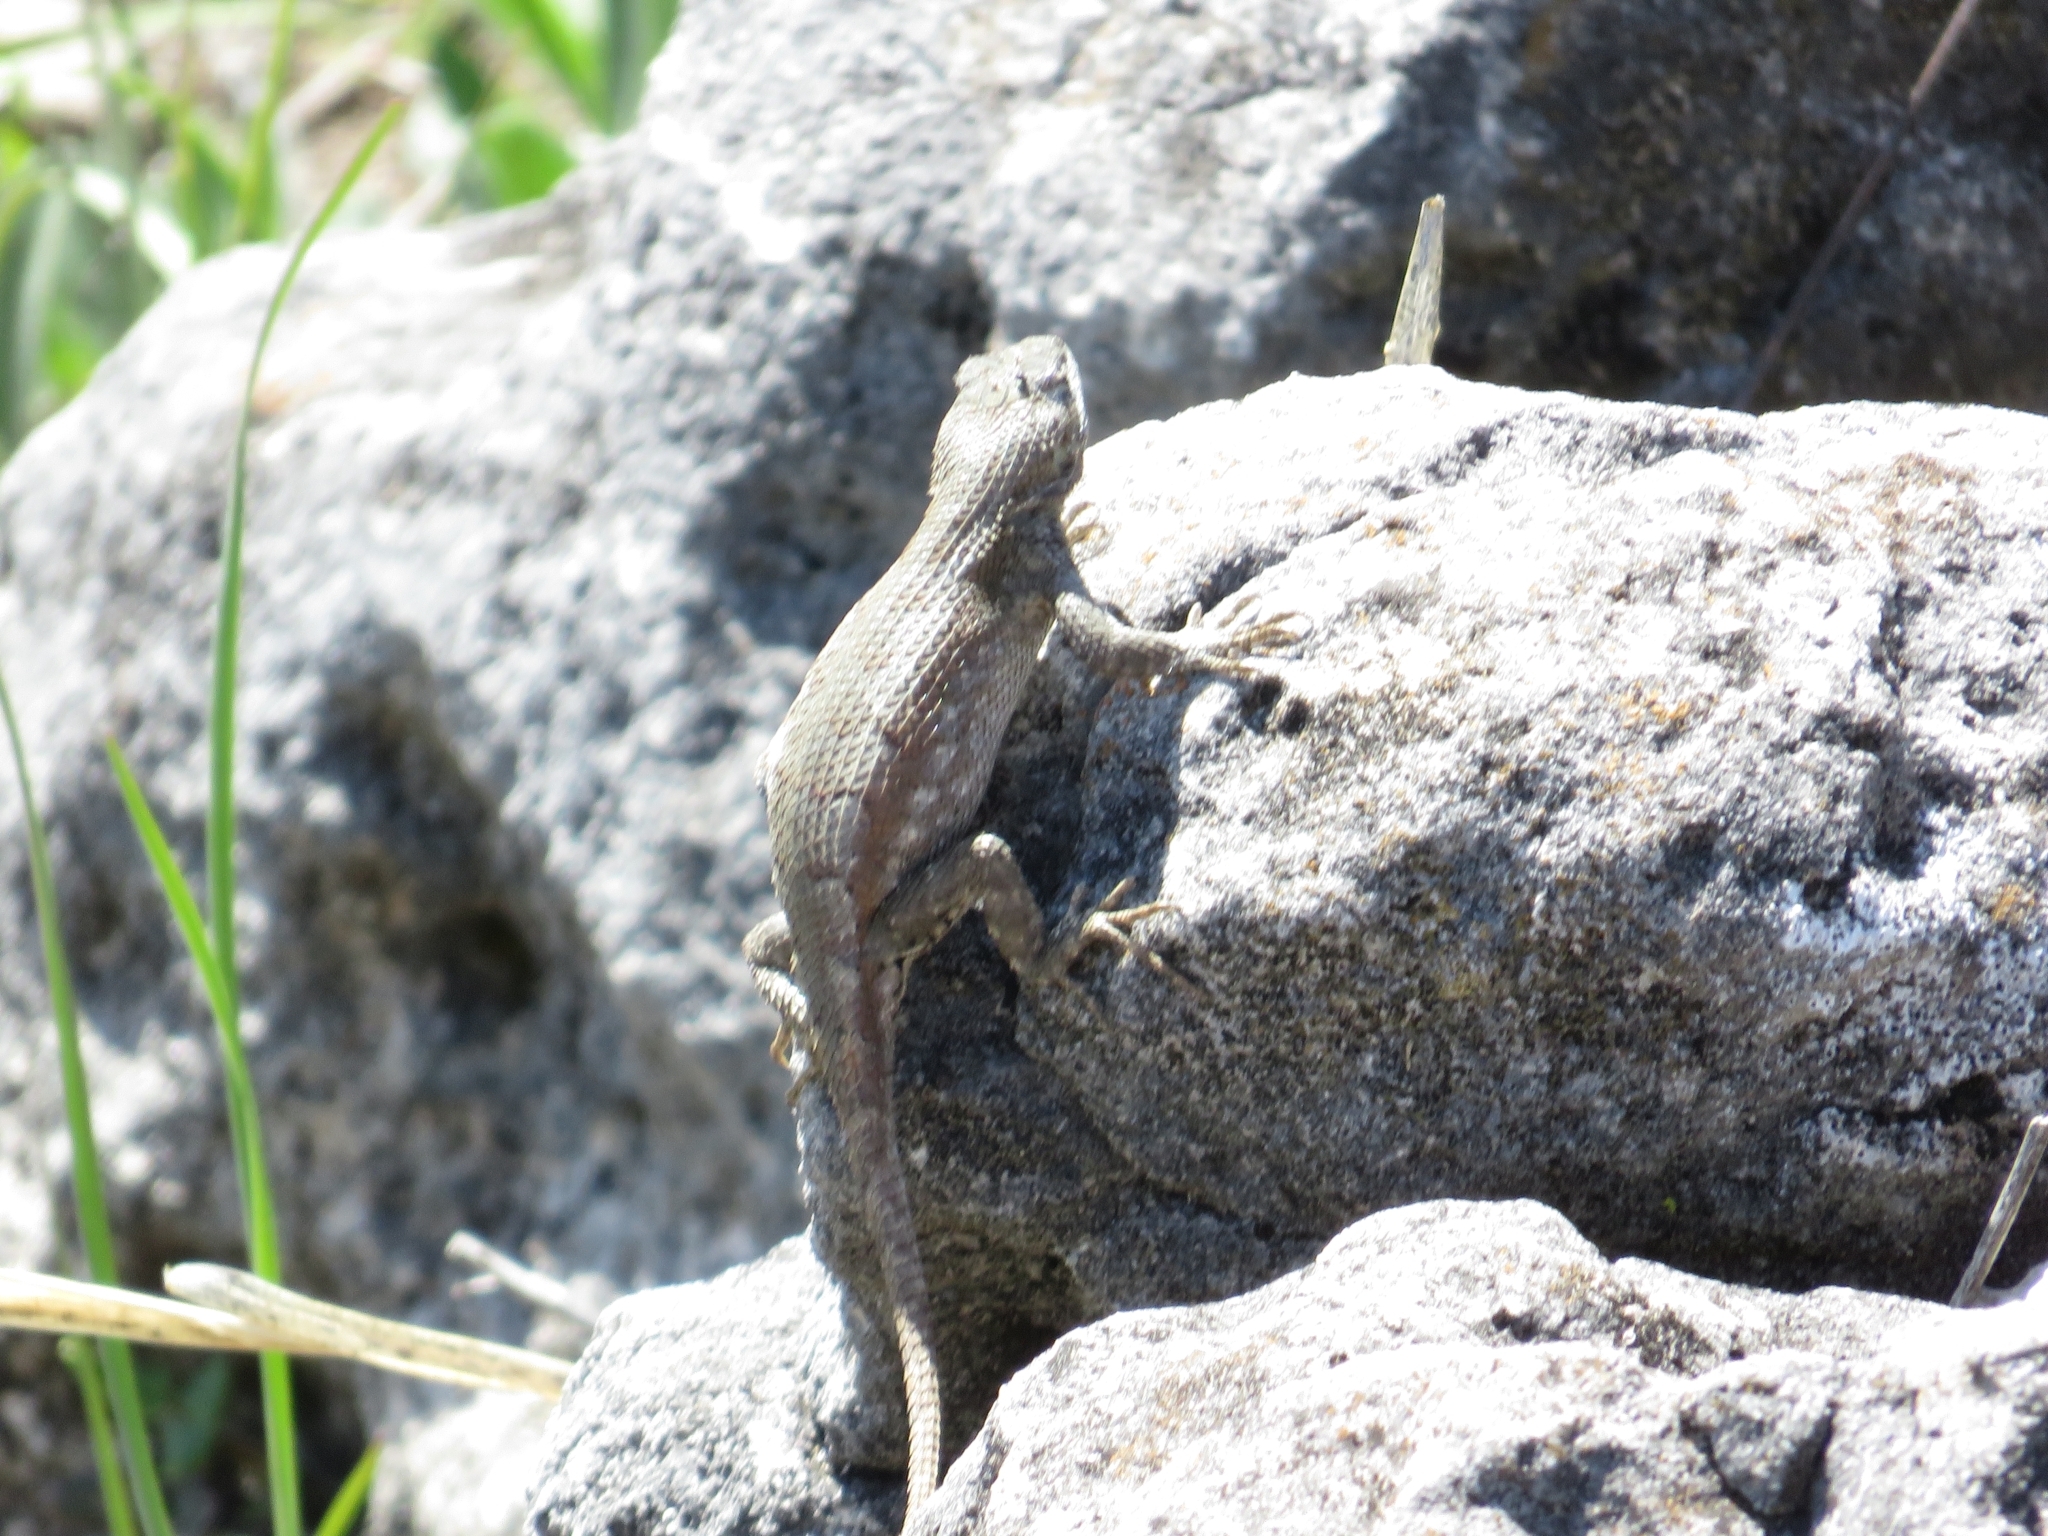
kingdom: Animalia
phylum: Chordata
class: Squamata
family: Phrynosomatidae
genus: Sceloporus
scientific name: Sceloporus consobrinus
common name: Southern prairie lizard
